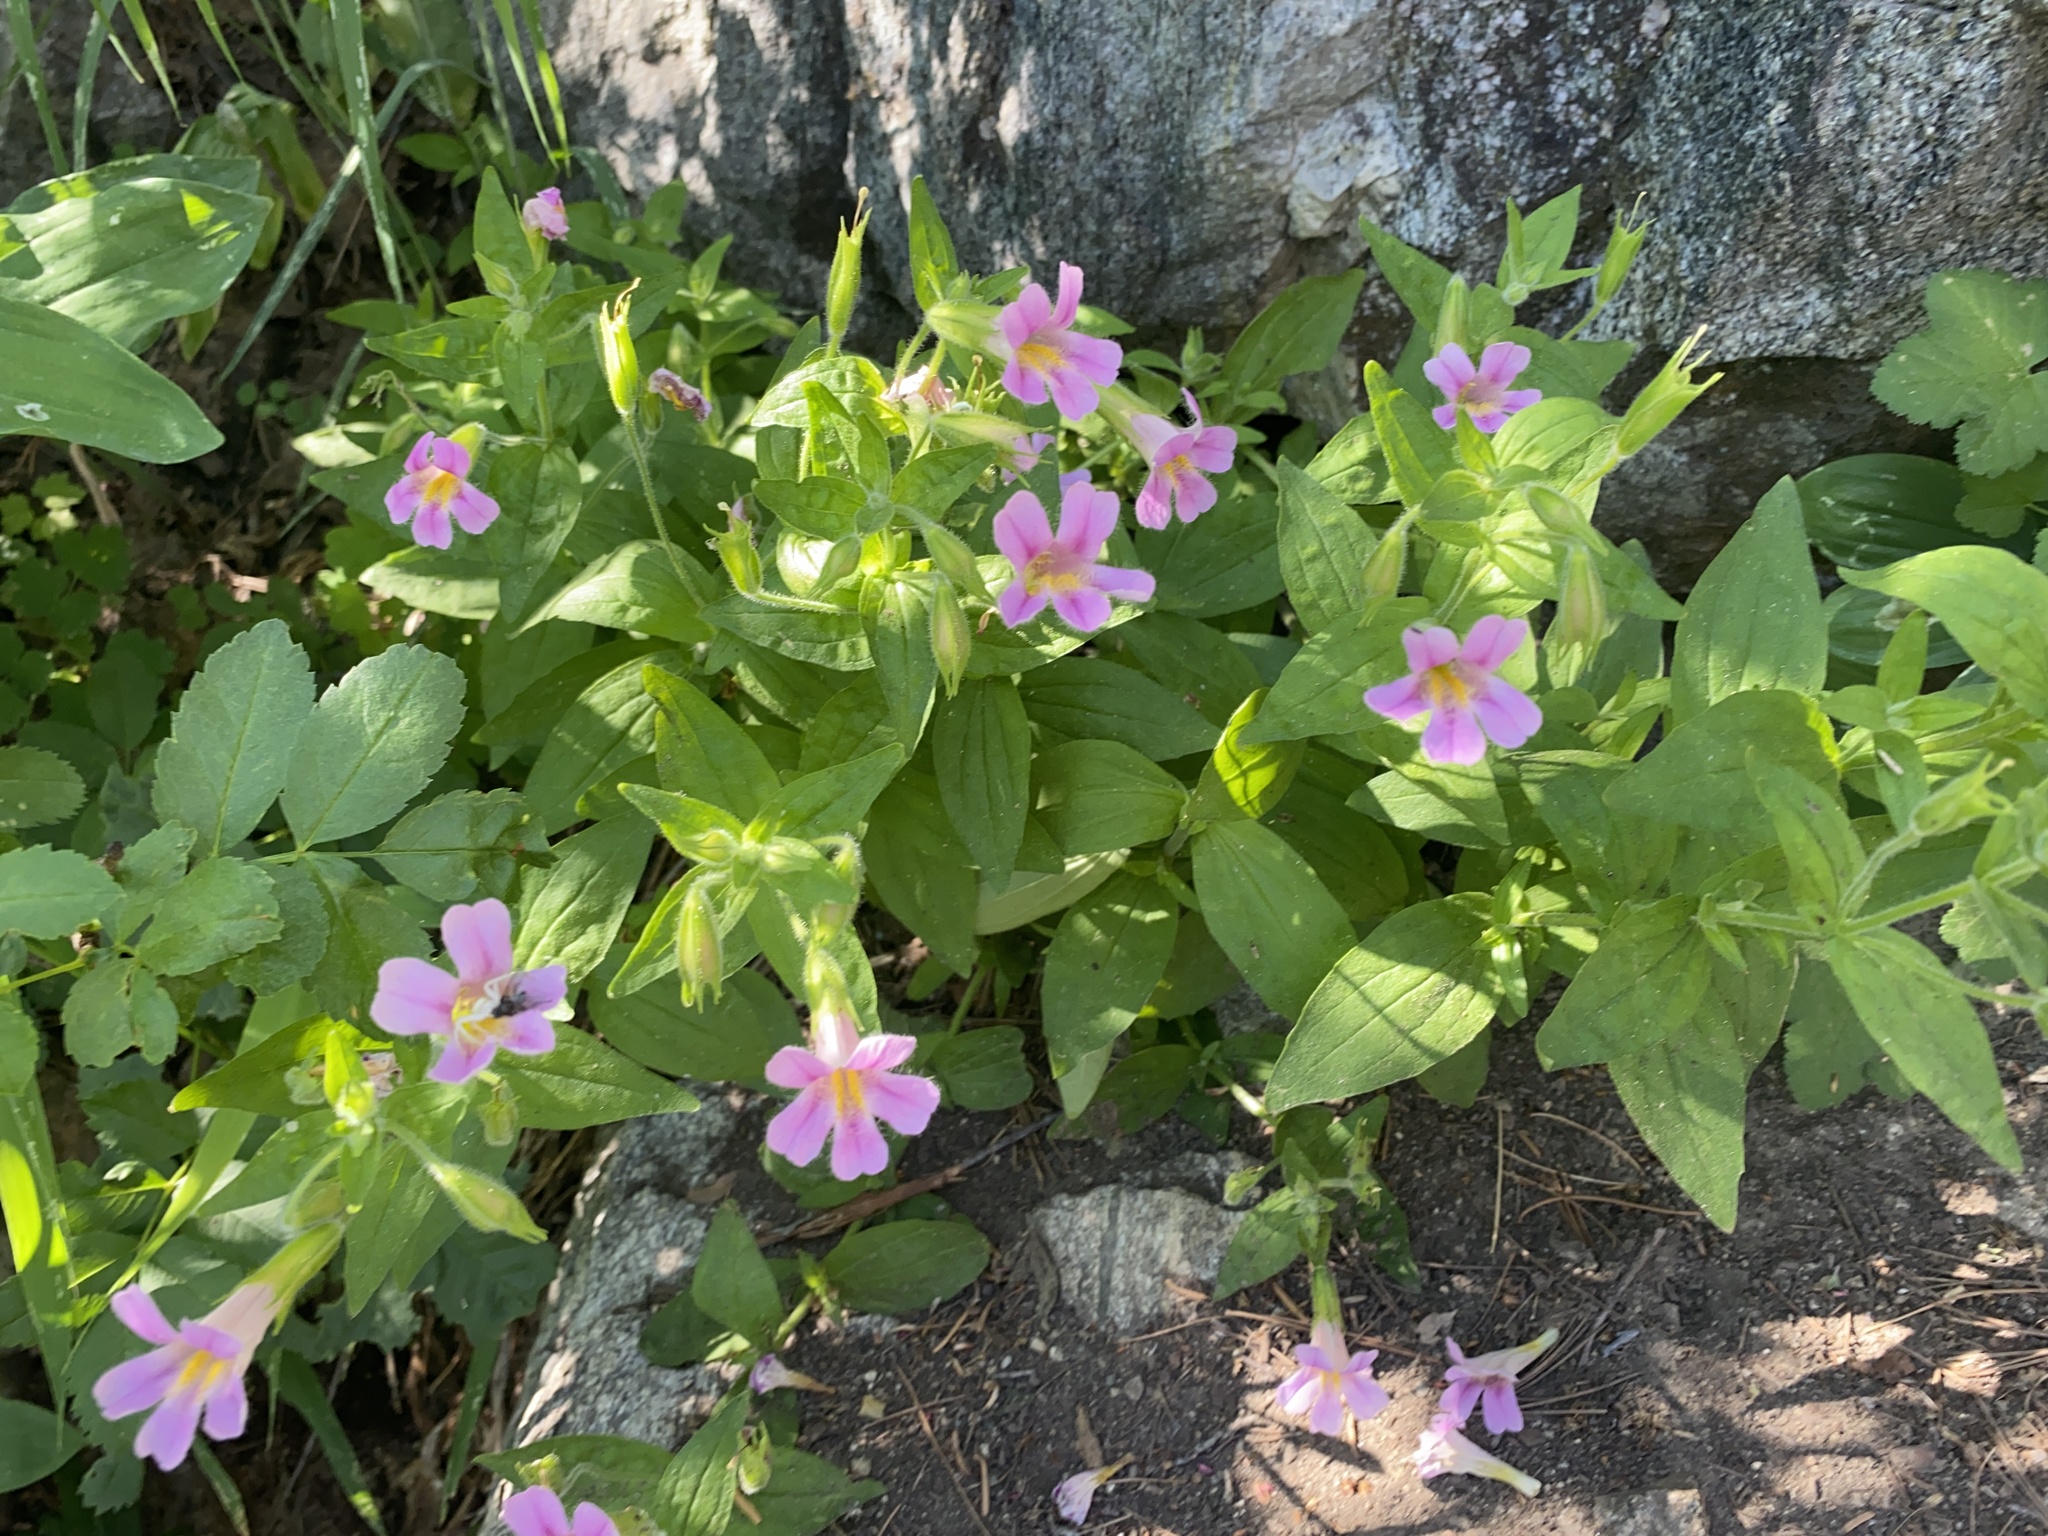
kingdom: Plantae
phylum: Tracheophyta
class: Magnoliopsida
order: Lamiales
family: Phrymaceae
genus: Erythranthe
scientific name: Erythranthe erubescens
